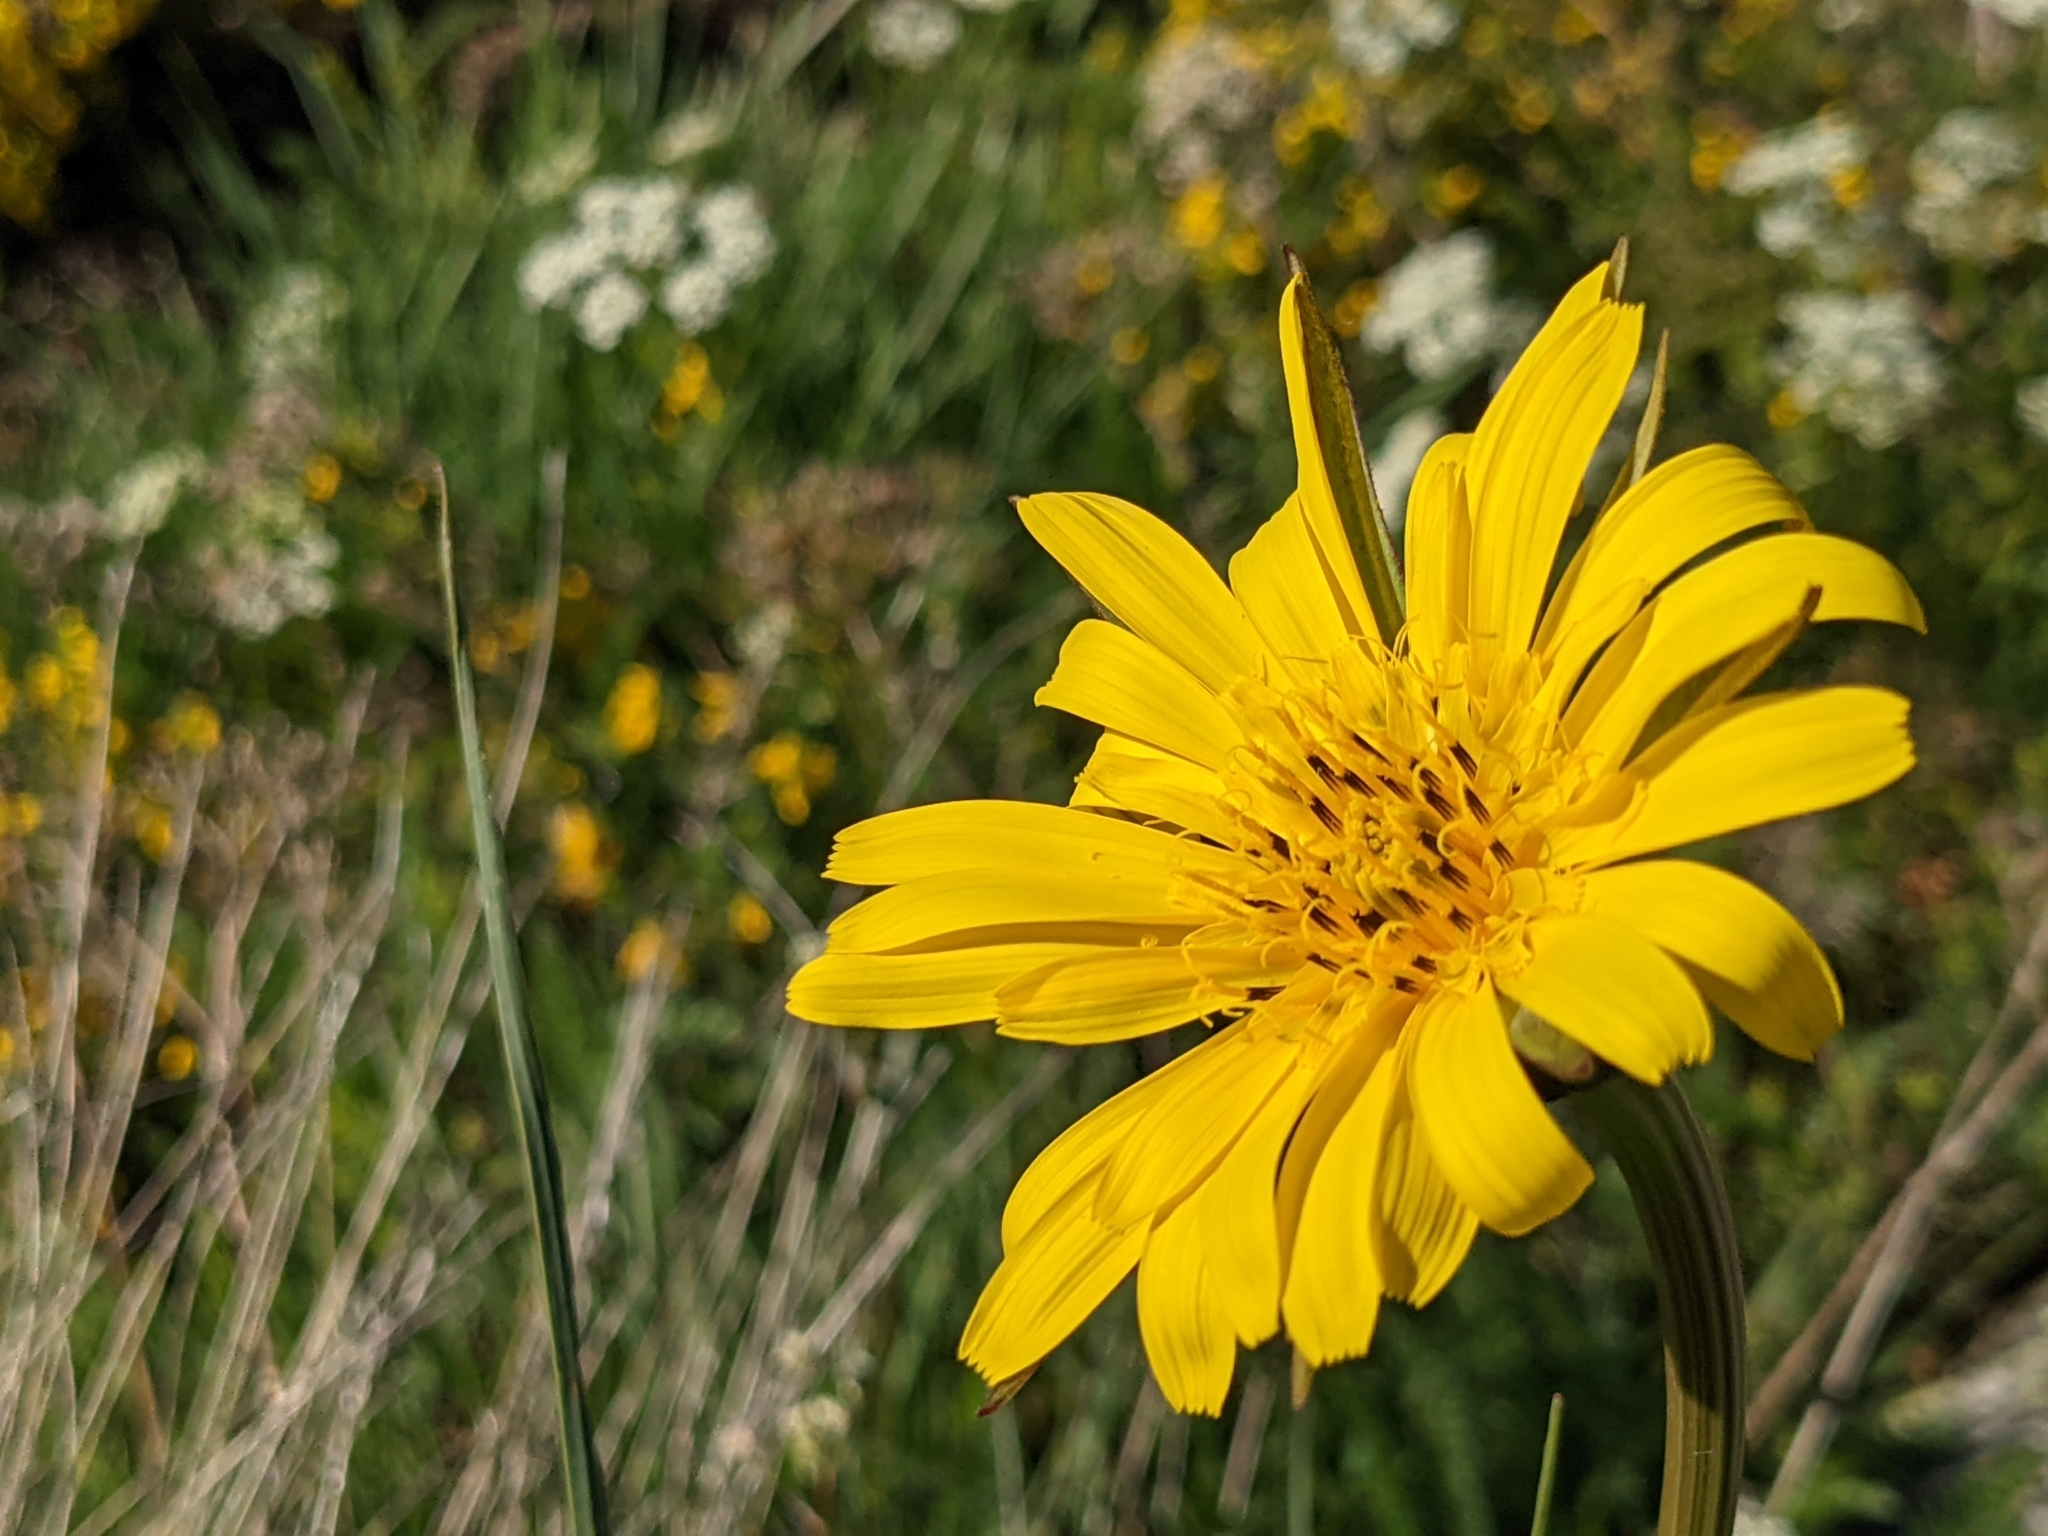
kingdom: Plantae
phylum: Tracheophyta
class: Magnoliopsida
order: Asterales
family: Asteraceae
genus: Tragopogon
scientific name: Tragopogon pratensis
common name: Goat's-beard
